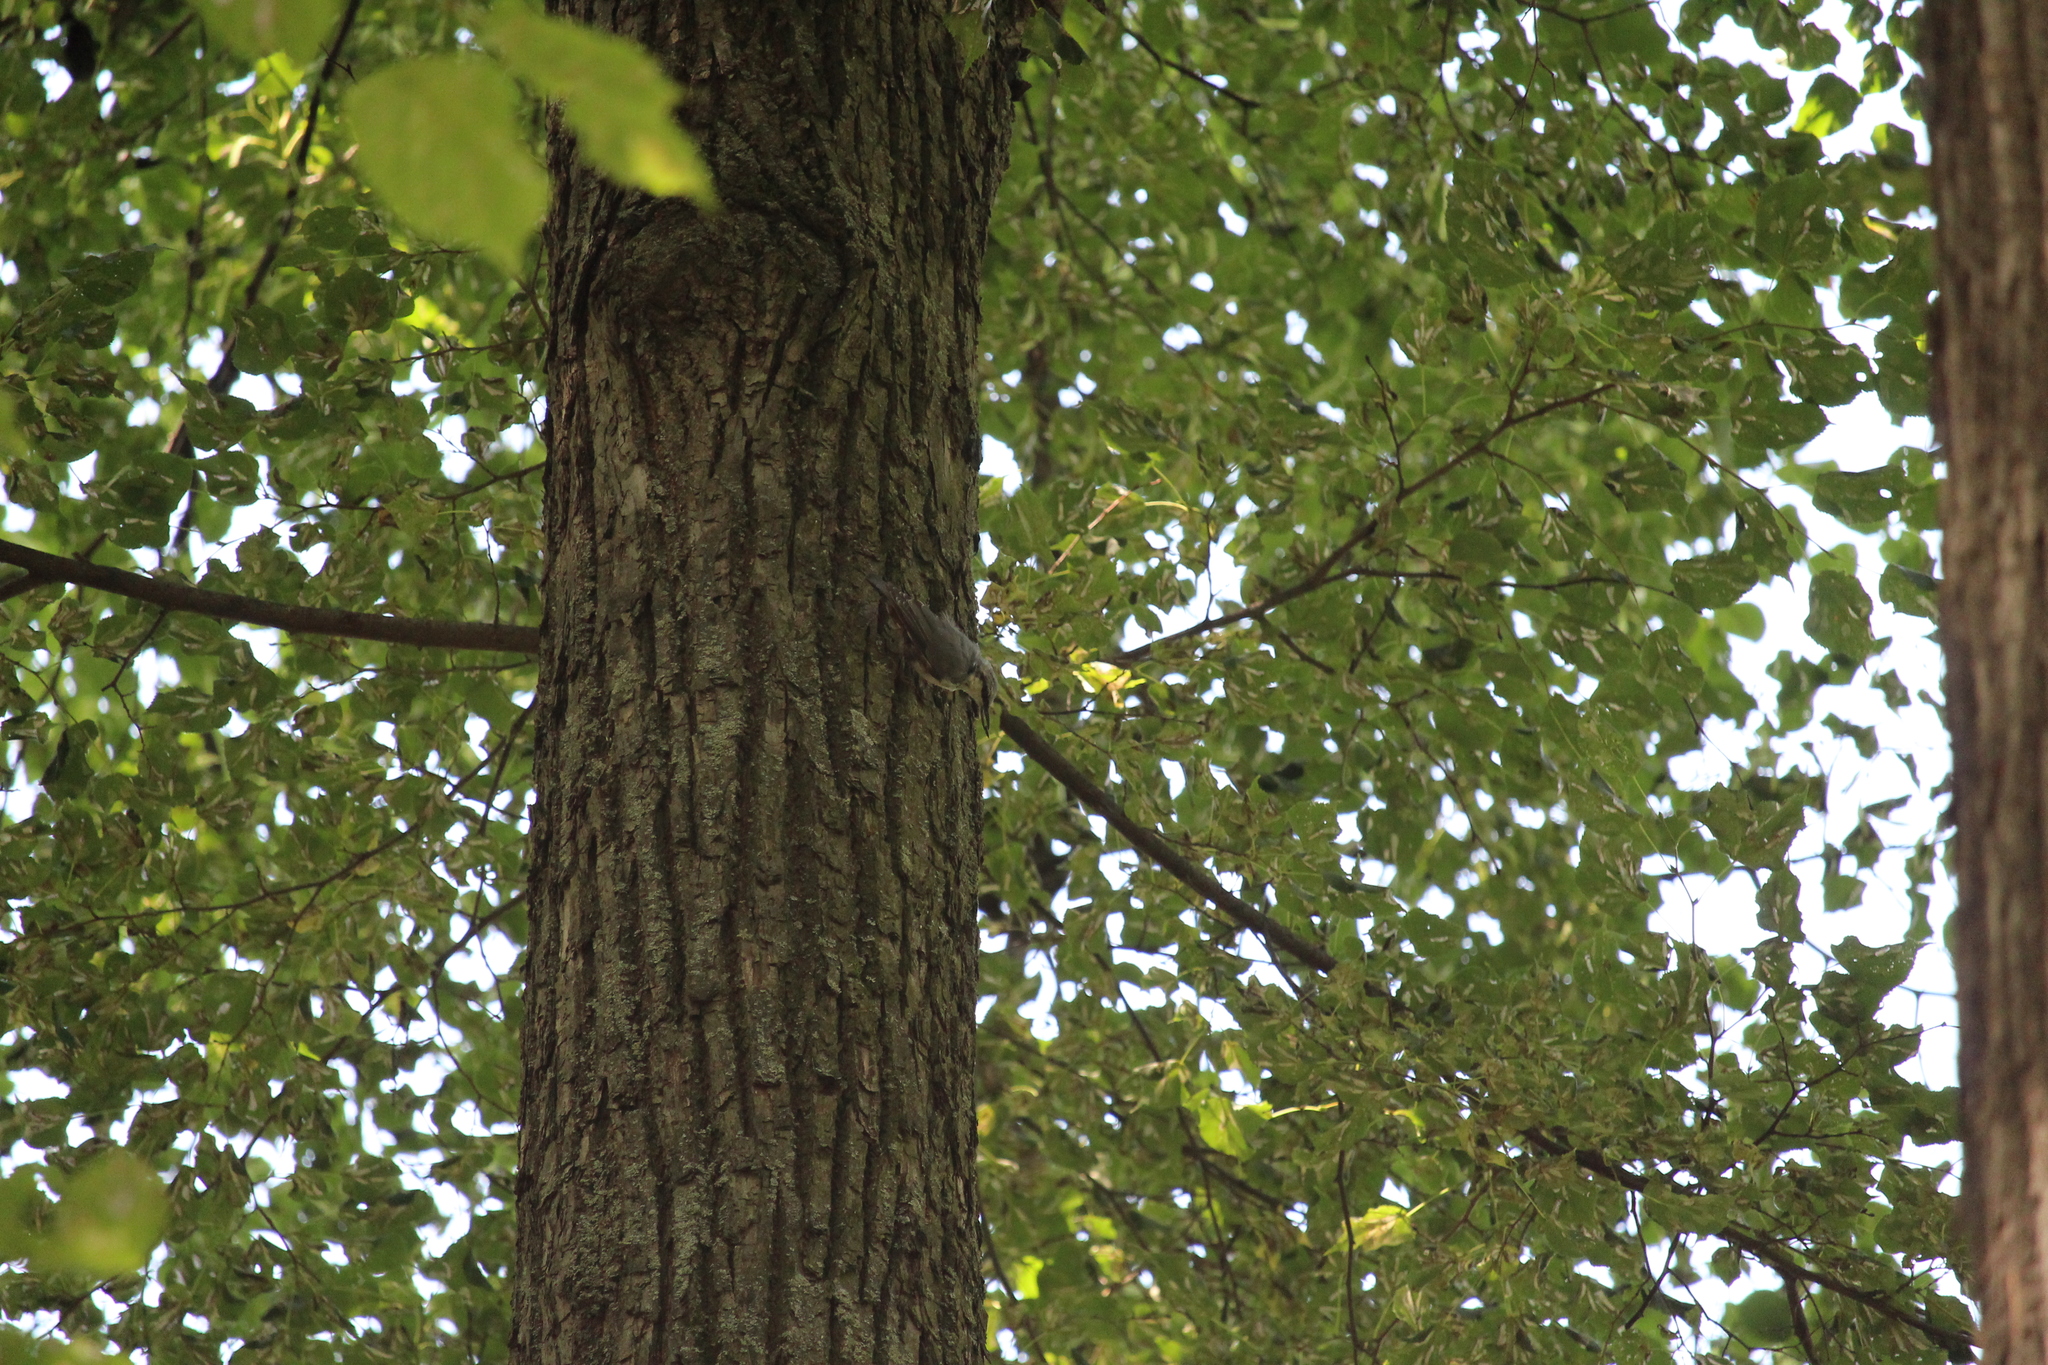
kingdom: Animalia
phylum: Chordata
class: Aves
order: Passeriformes
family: Sittidae
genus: Sitta
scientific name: Sitta europaea
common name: Eurasian nuthatch
